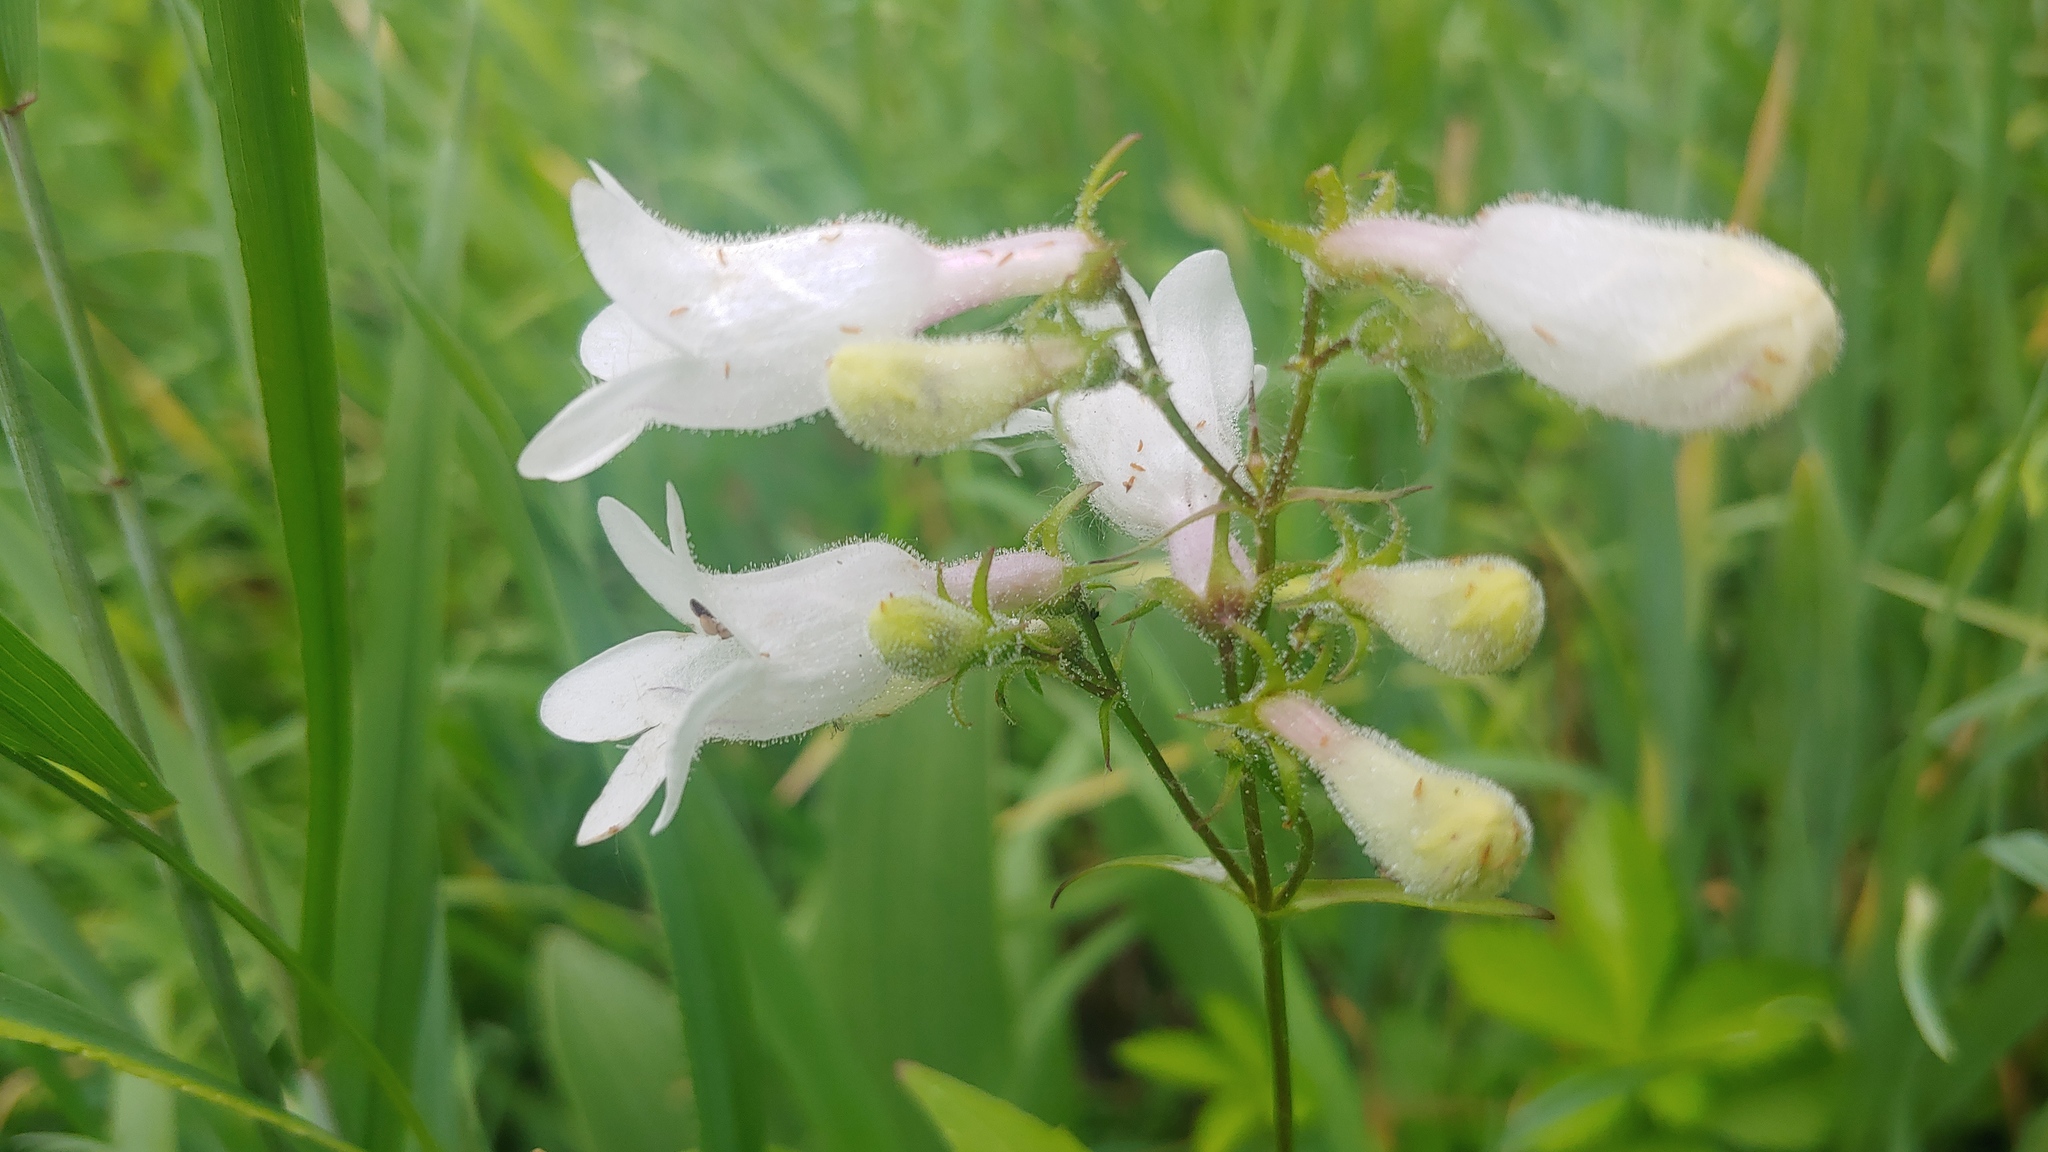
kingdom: Plantae
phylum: Tracheophyta
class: Magnoliopsida
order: Lamiales
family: Plantaginaceae
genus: Penstemon
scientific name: Penstemon calycosus
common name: Long-sepal beardtongue
